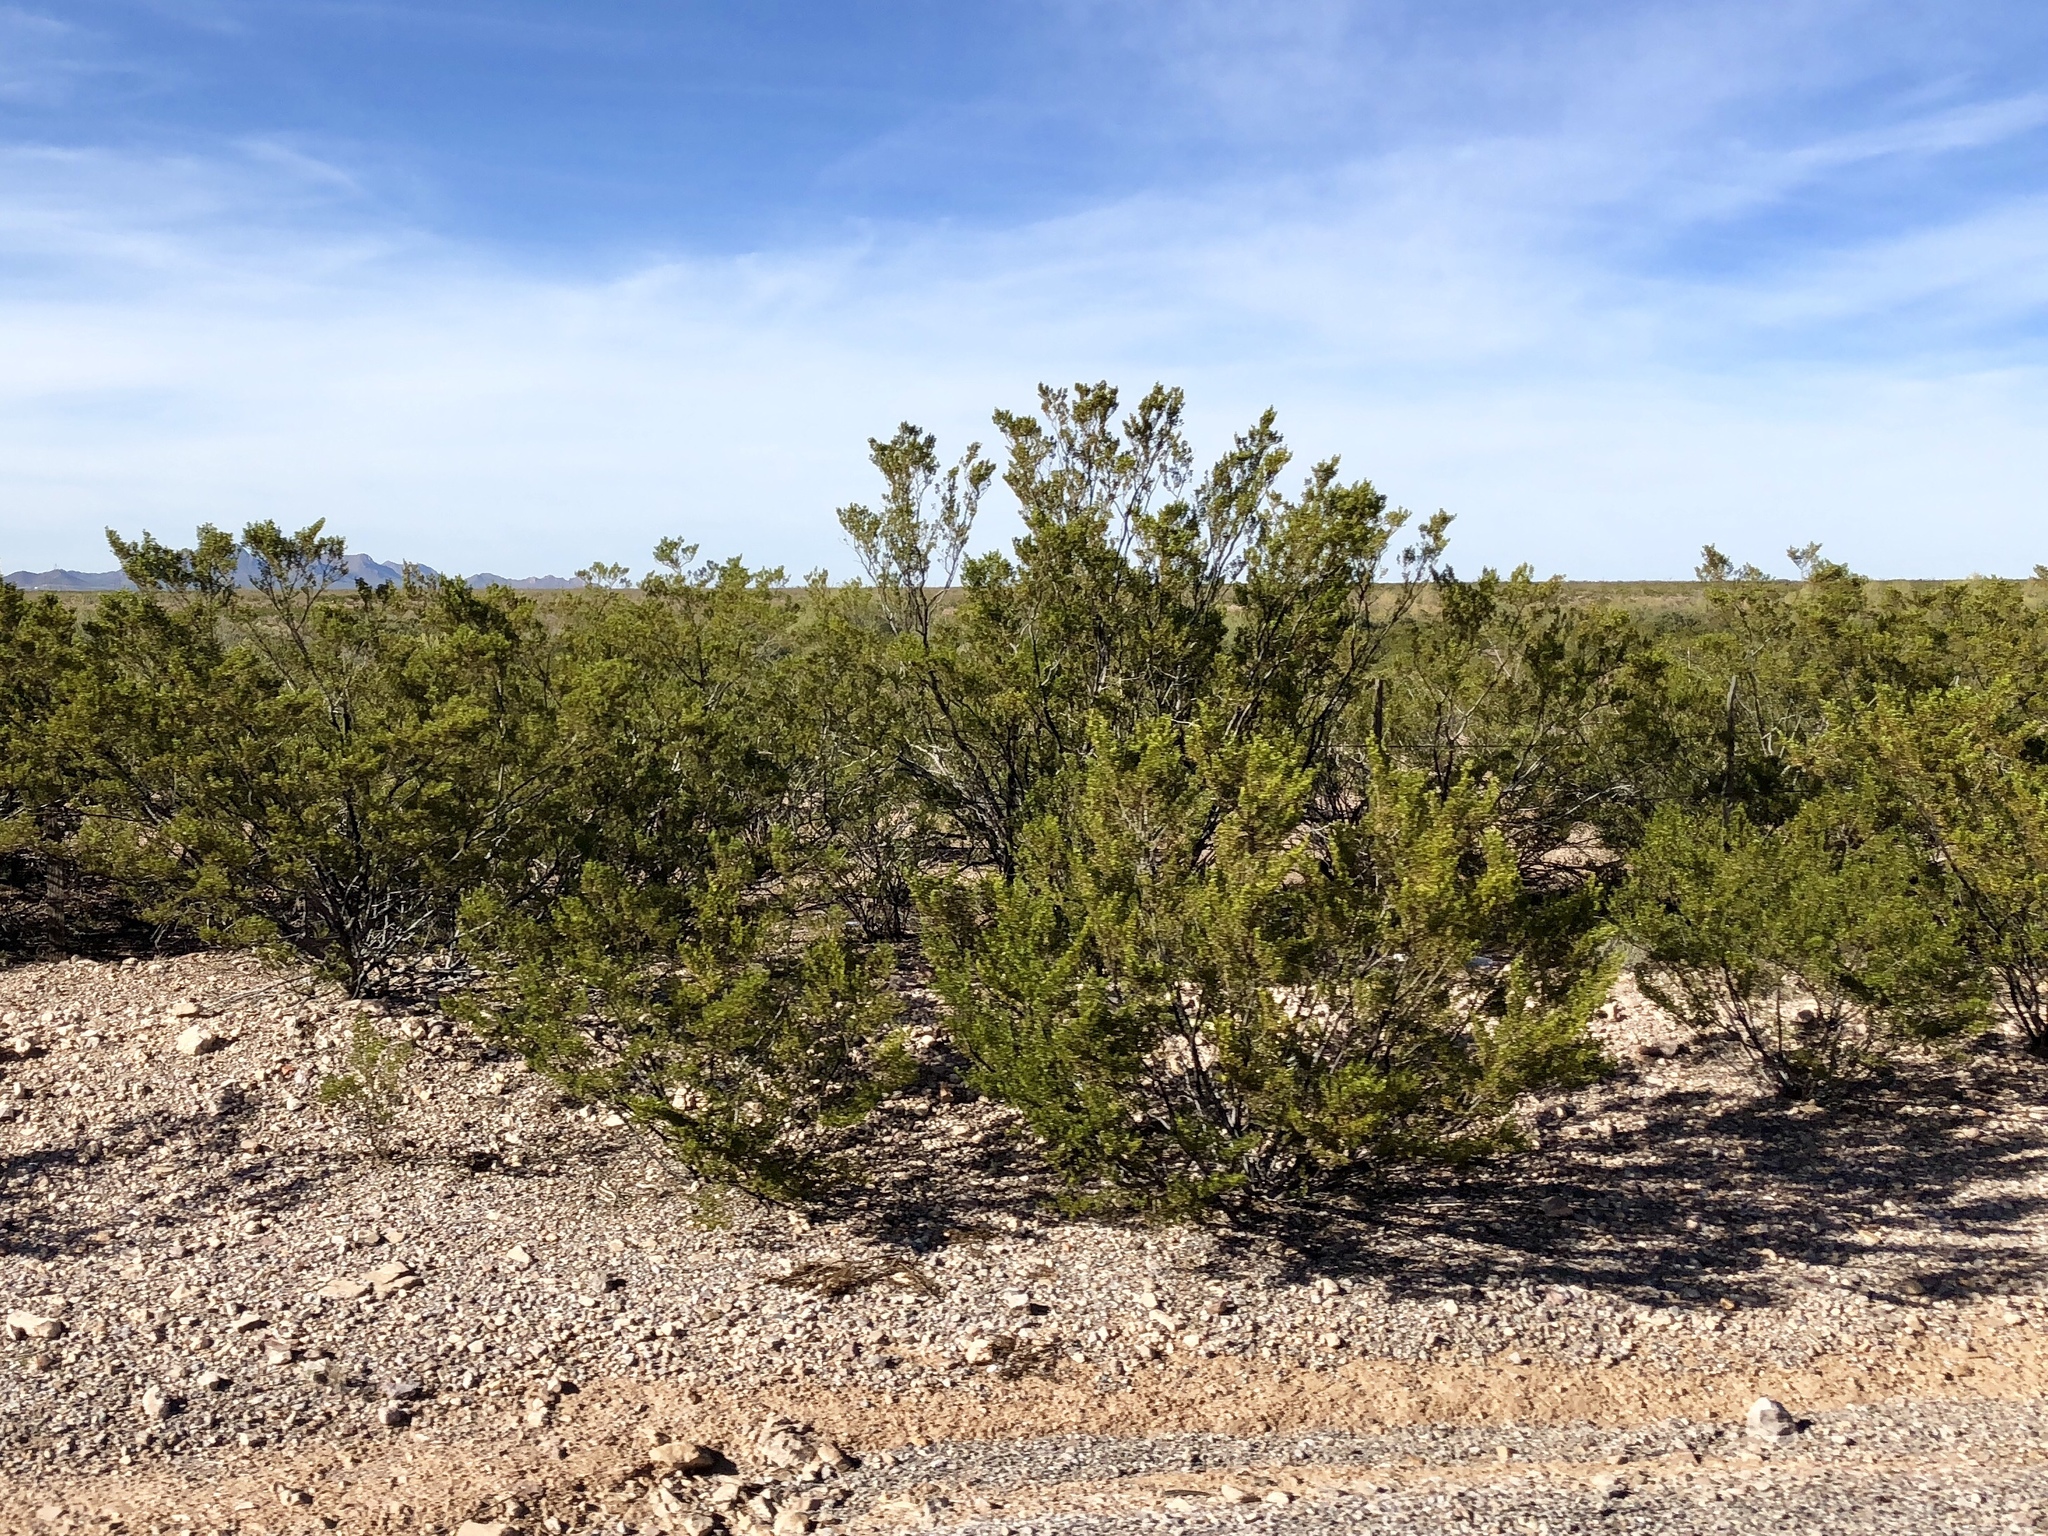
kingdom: Plantae
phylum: Tracheophyta
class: Magnoliopsida
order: Zygophyllales
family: Zygophyllaceae
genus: Larrea
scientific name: Larrea tridentata
